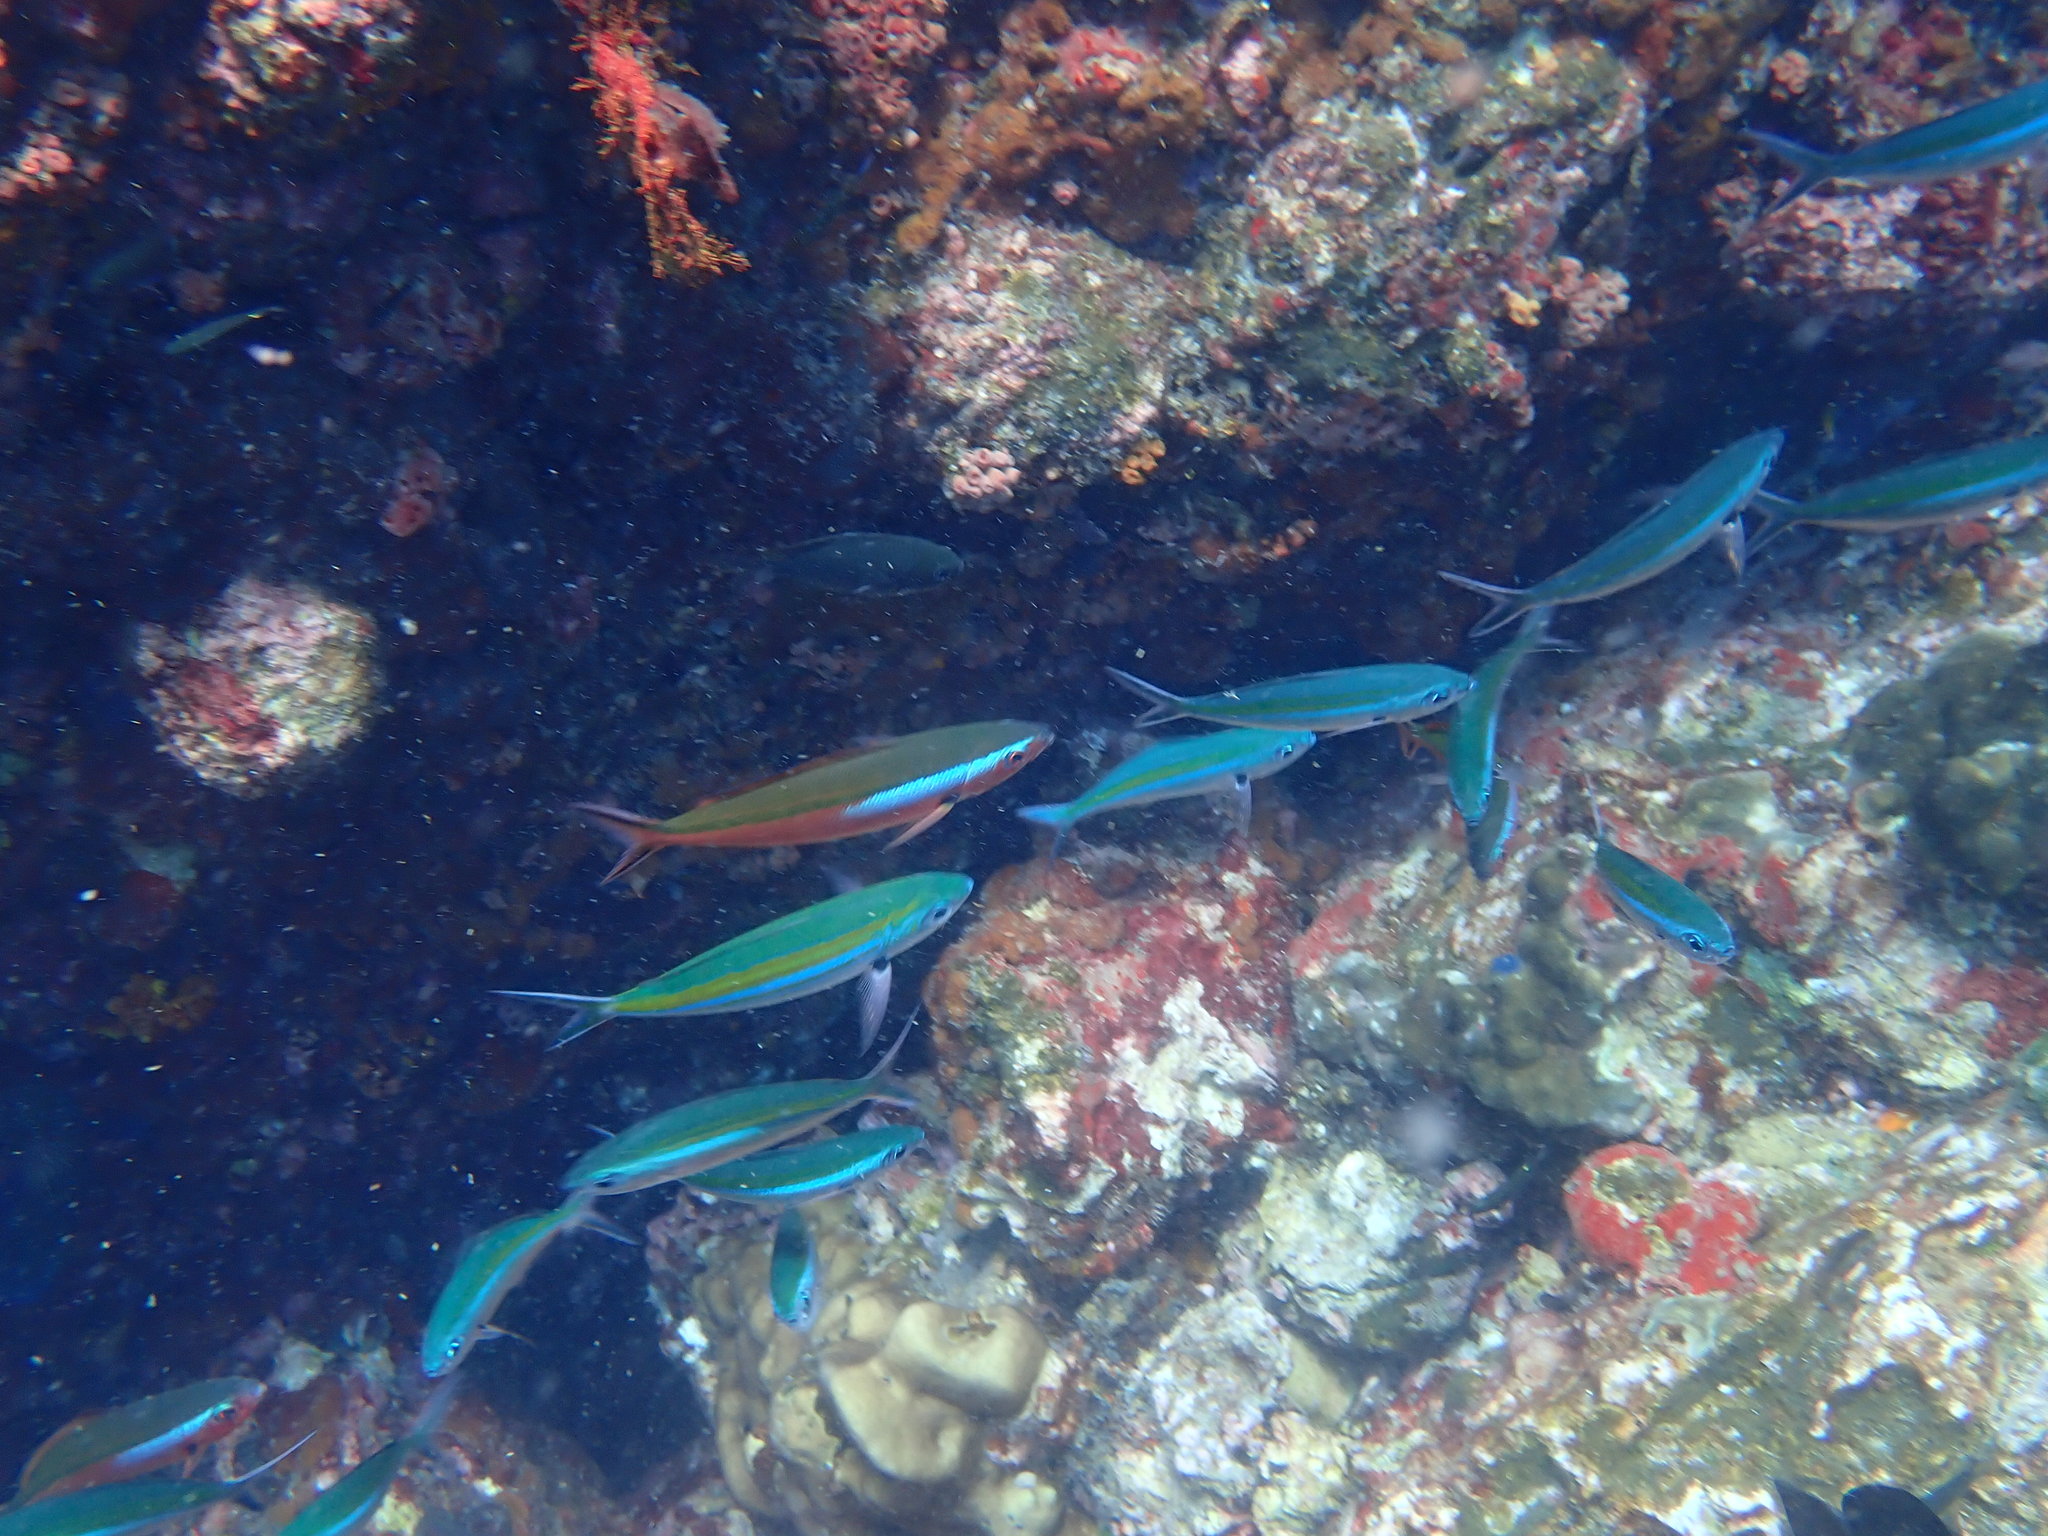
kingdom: Animalia
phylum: Chordata
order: Perciformes
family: Caesionidae
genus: Pterocaesio
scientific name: Pterocaesio tile
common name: Dark-banded fusilier
